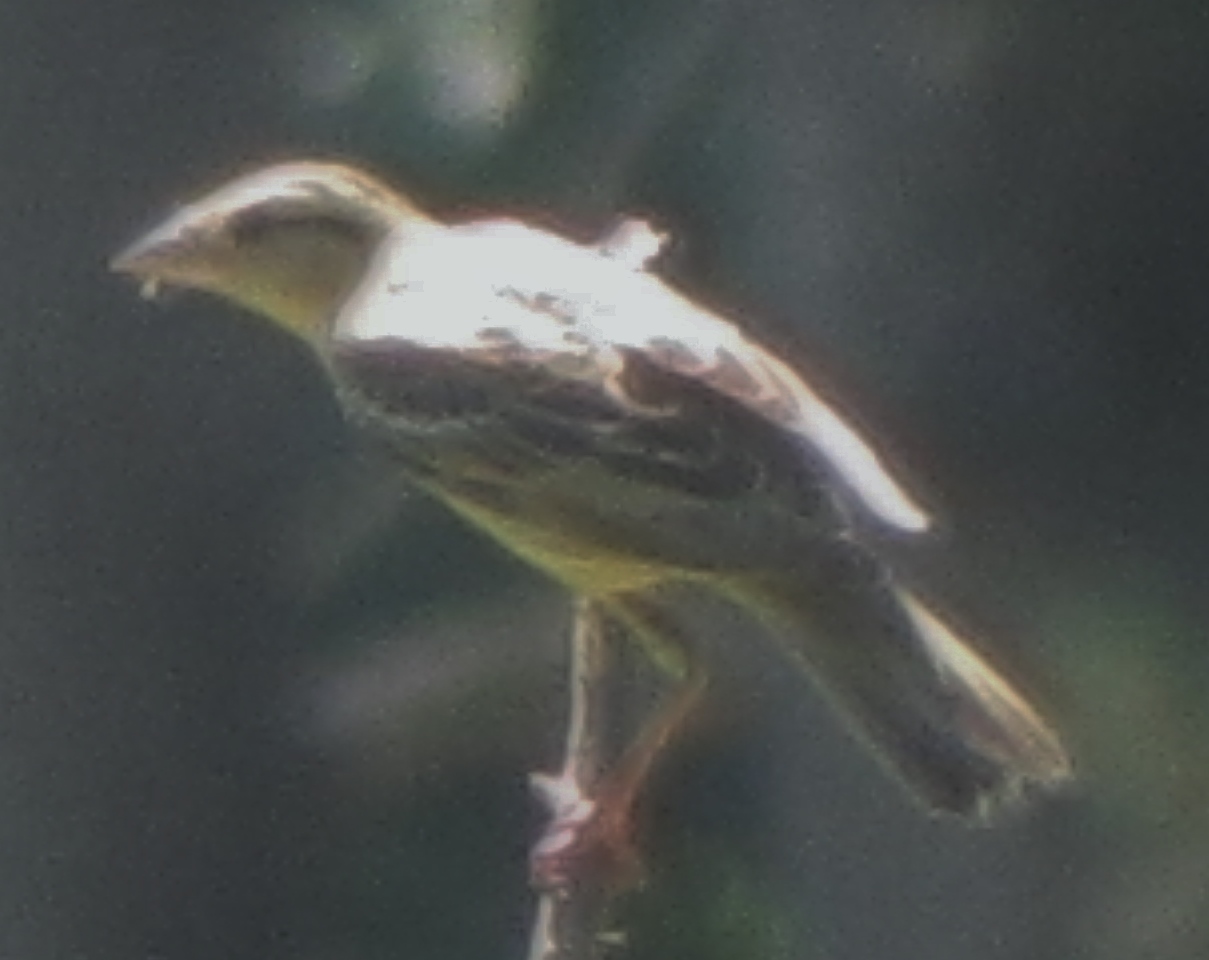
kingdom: Animalia
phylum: Chordata
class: Aves
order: Passeriformes
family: Icteridae
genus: Dolichonyx
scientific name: Dolichonyx oryzivorus
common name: Bobolink
